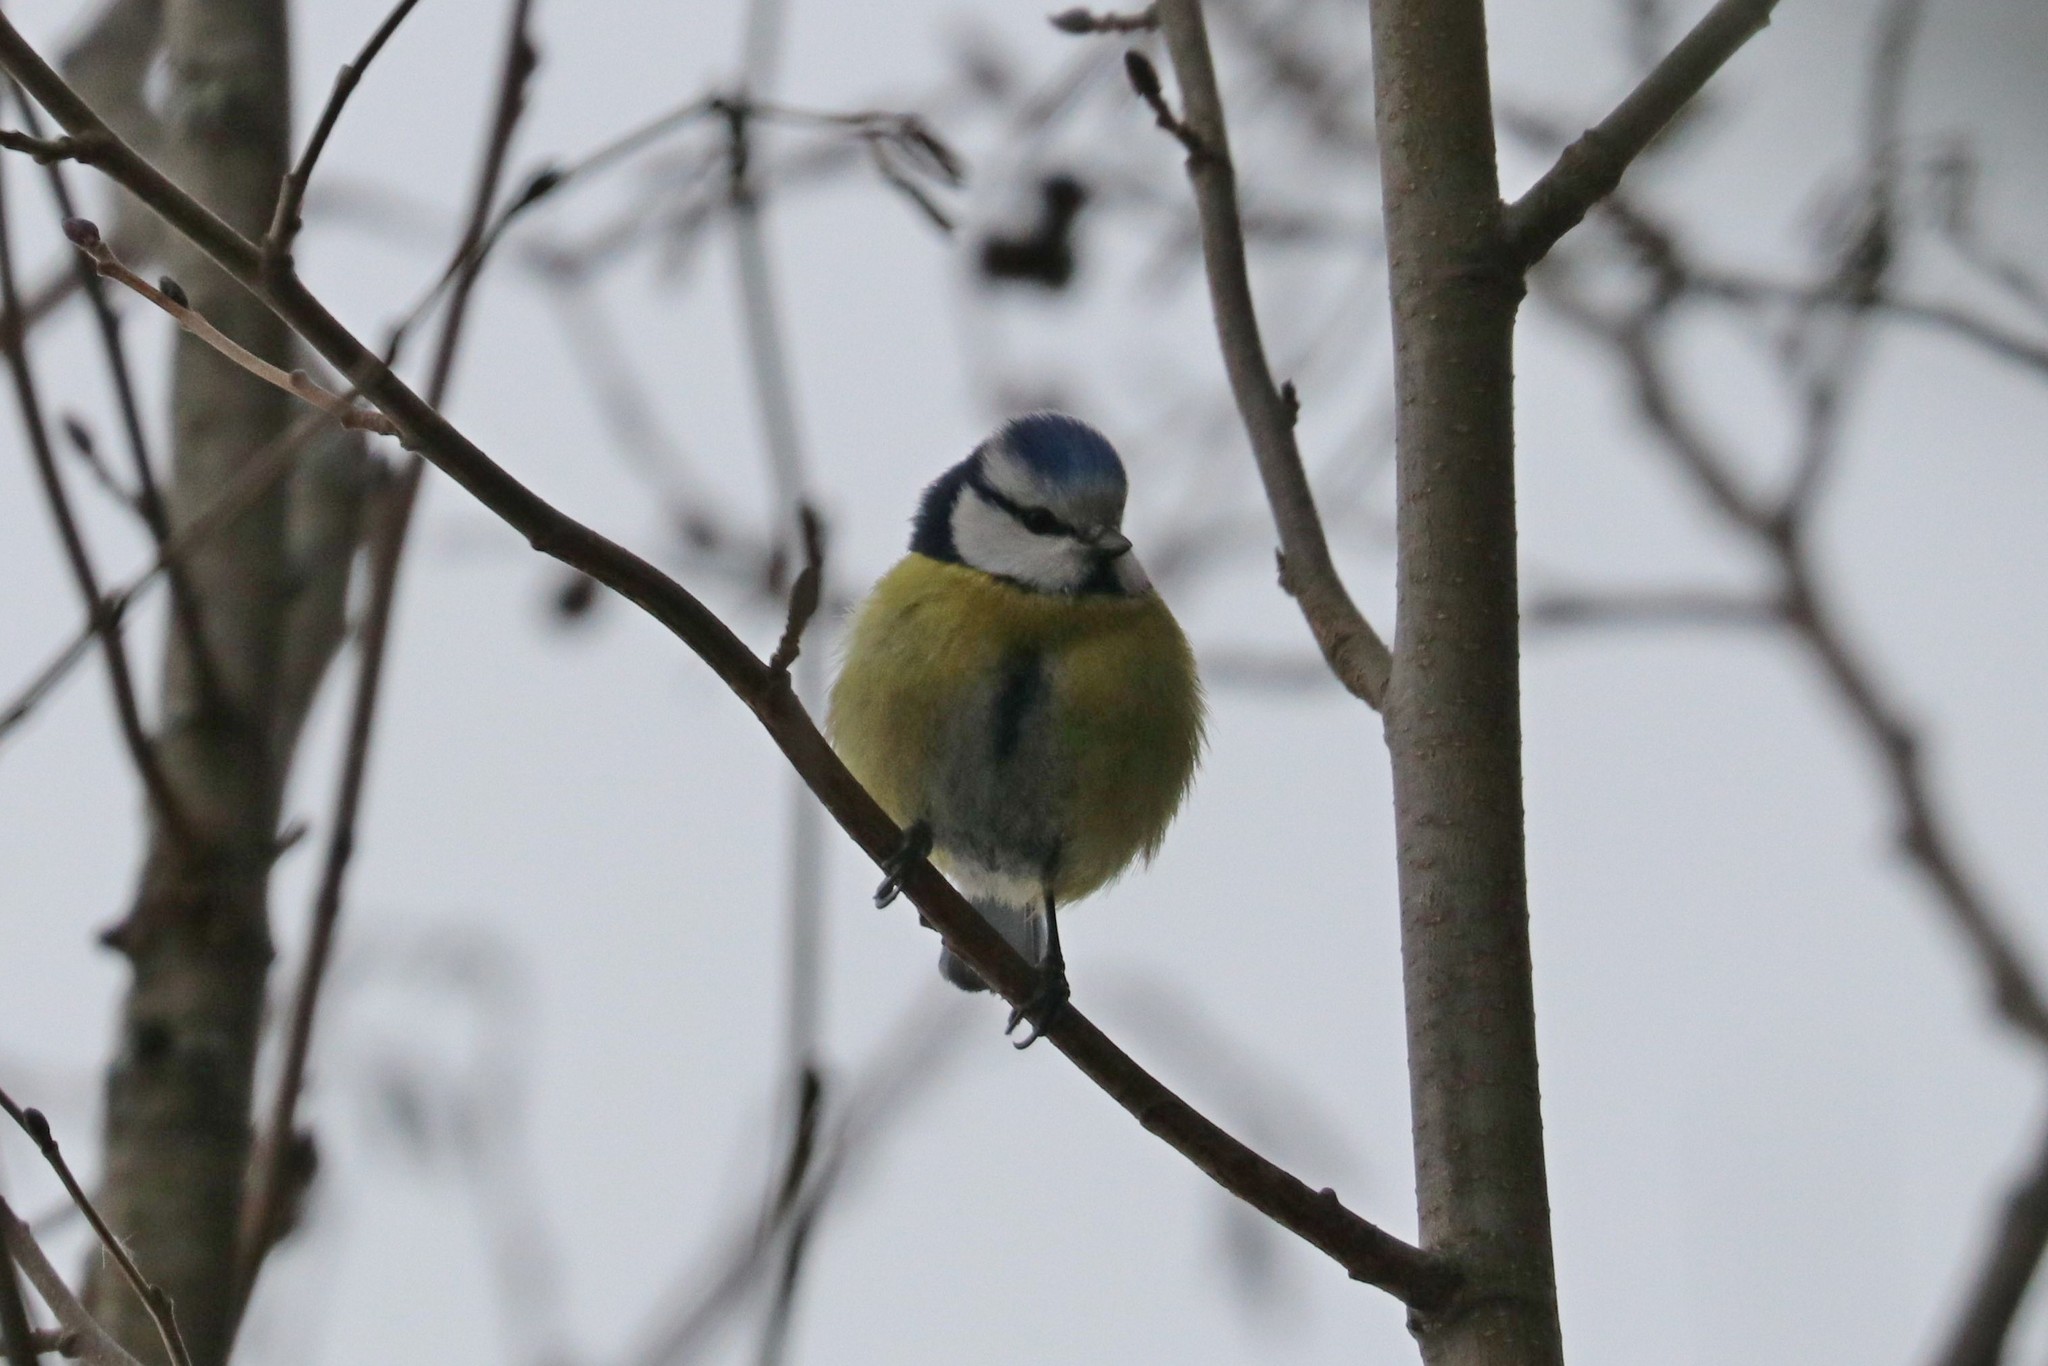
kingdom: Animalia
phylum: Chordata
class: Aves
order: Passeriformes
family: Paridae
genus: Cyanistes
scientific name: Cyanistes caeruleus
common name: Eurasian blue tit
